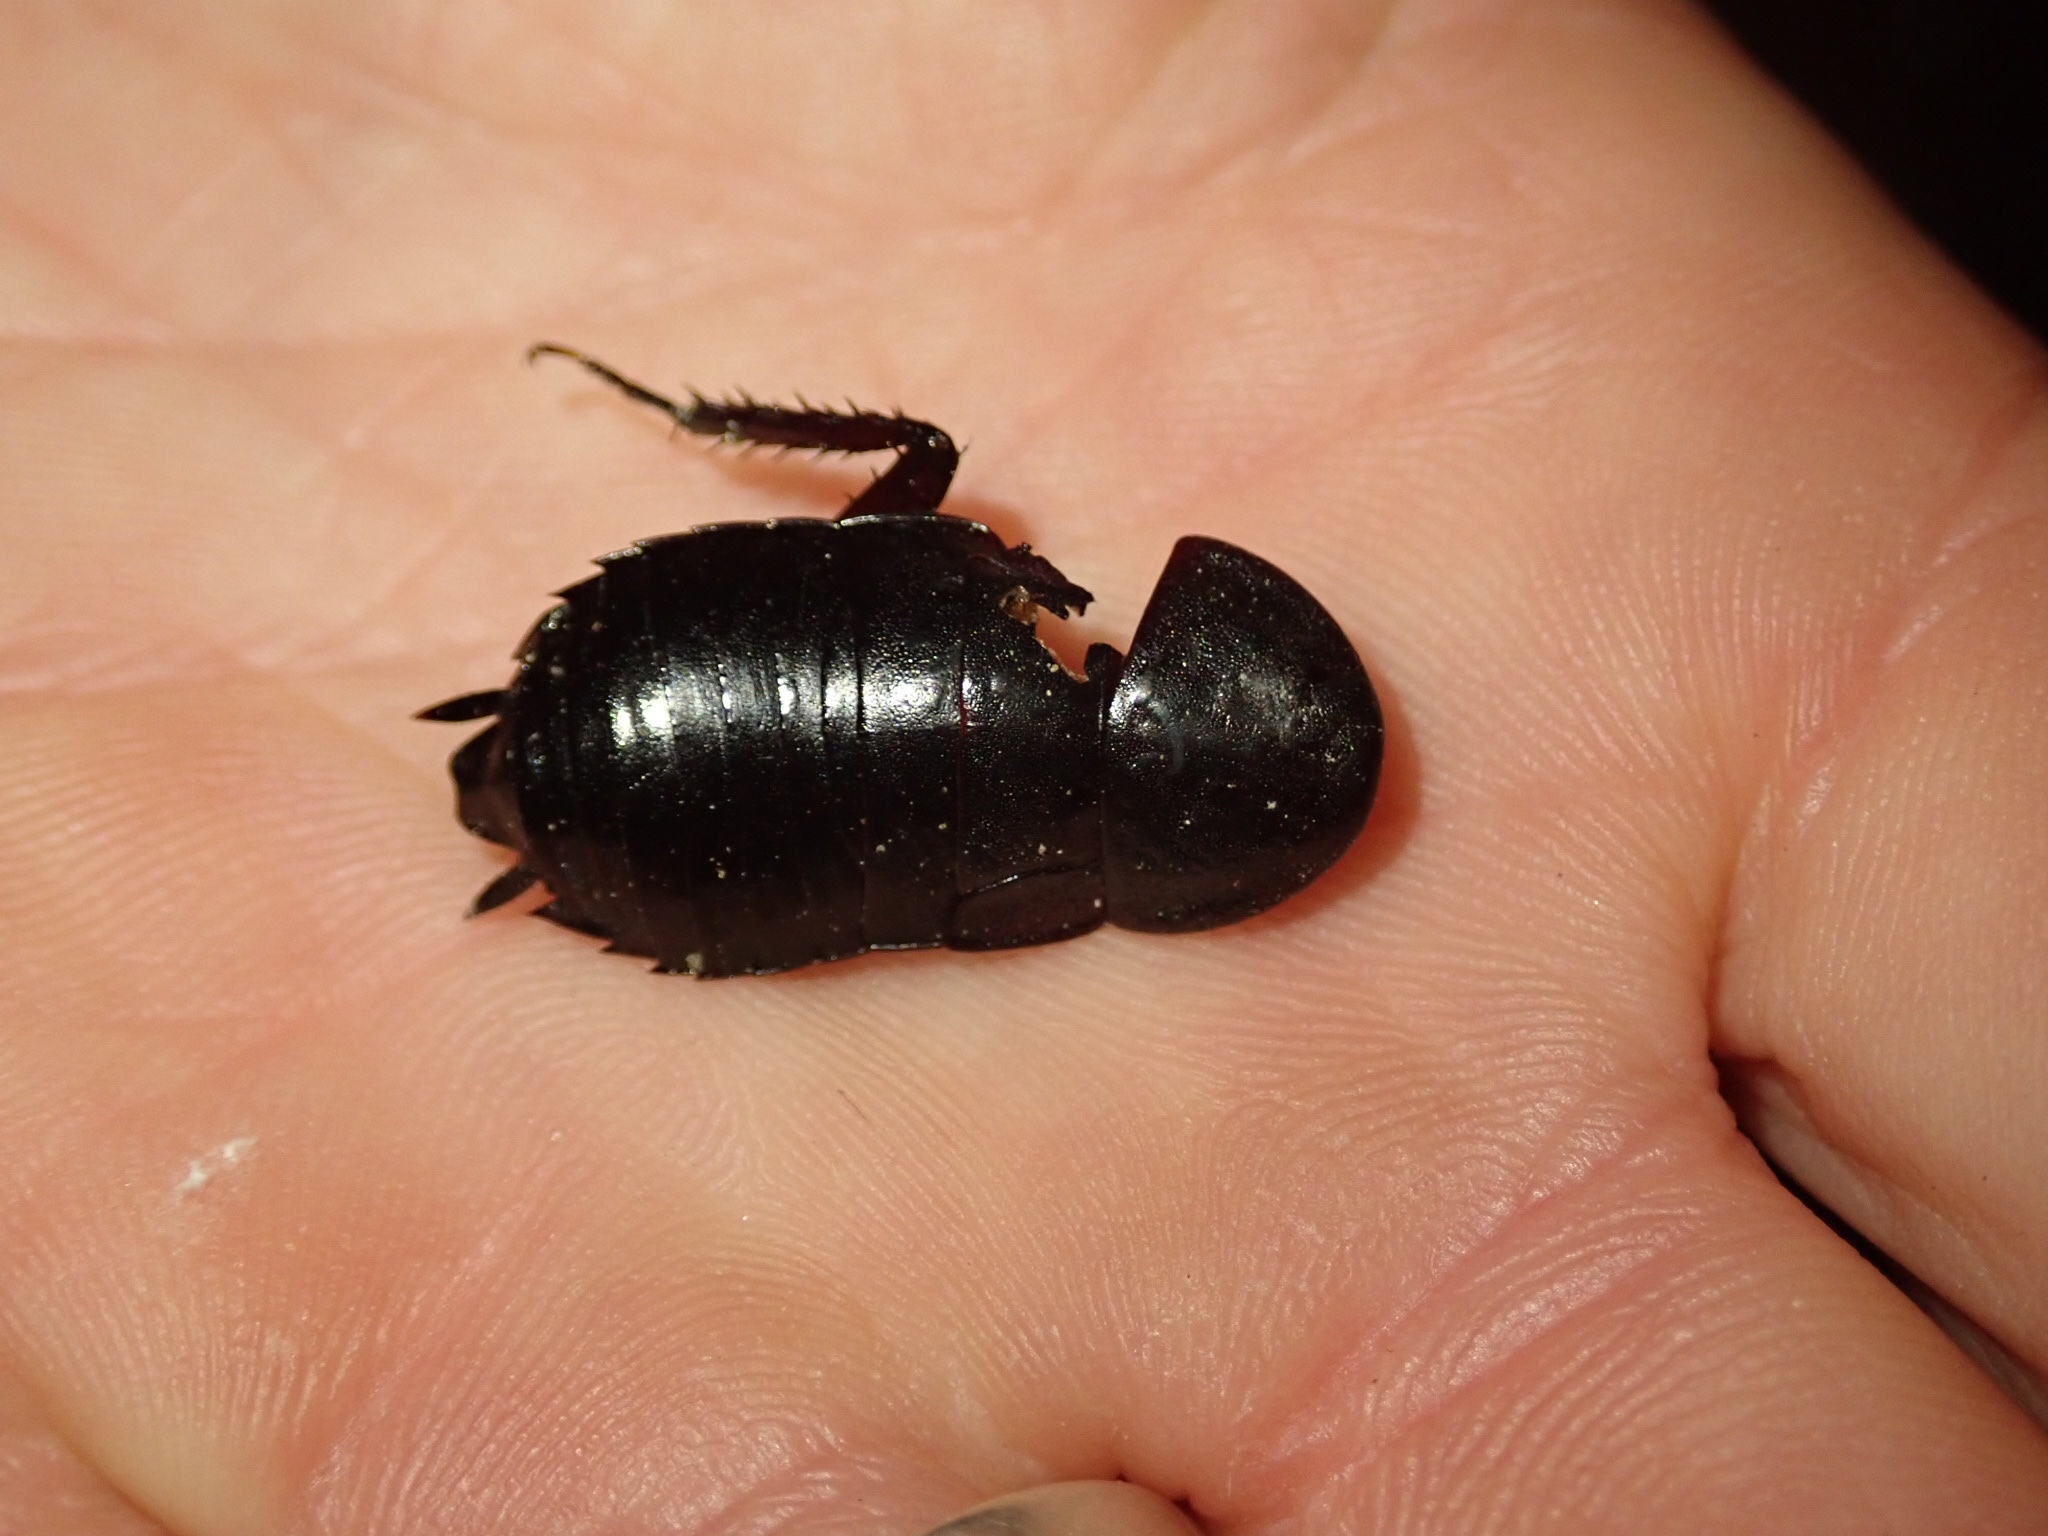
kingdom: Animalia
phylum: Arthropoda
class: Insecta
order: Blattodea
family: Blattidae
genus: Maoriblatta
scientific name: Maoriblatta novaeseelandiae
